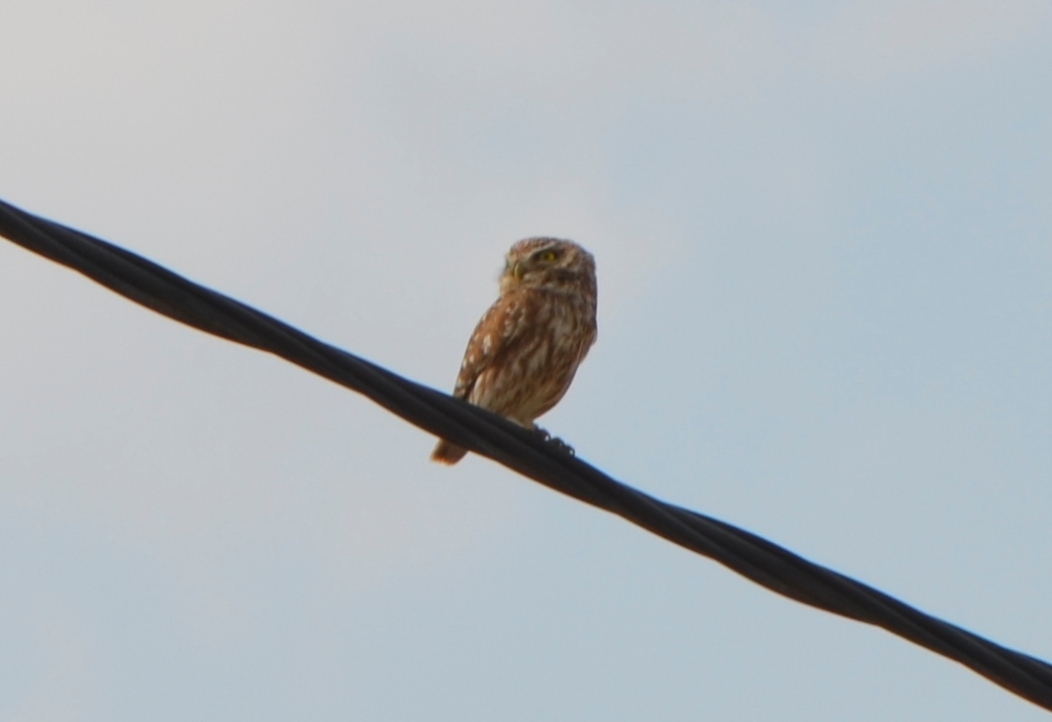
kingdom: Animalia
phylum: Chordata
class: Aves
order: Strigiformes
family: Strigidae
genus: Athene
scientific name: Athene noctua
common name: Little owl
